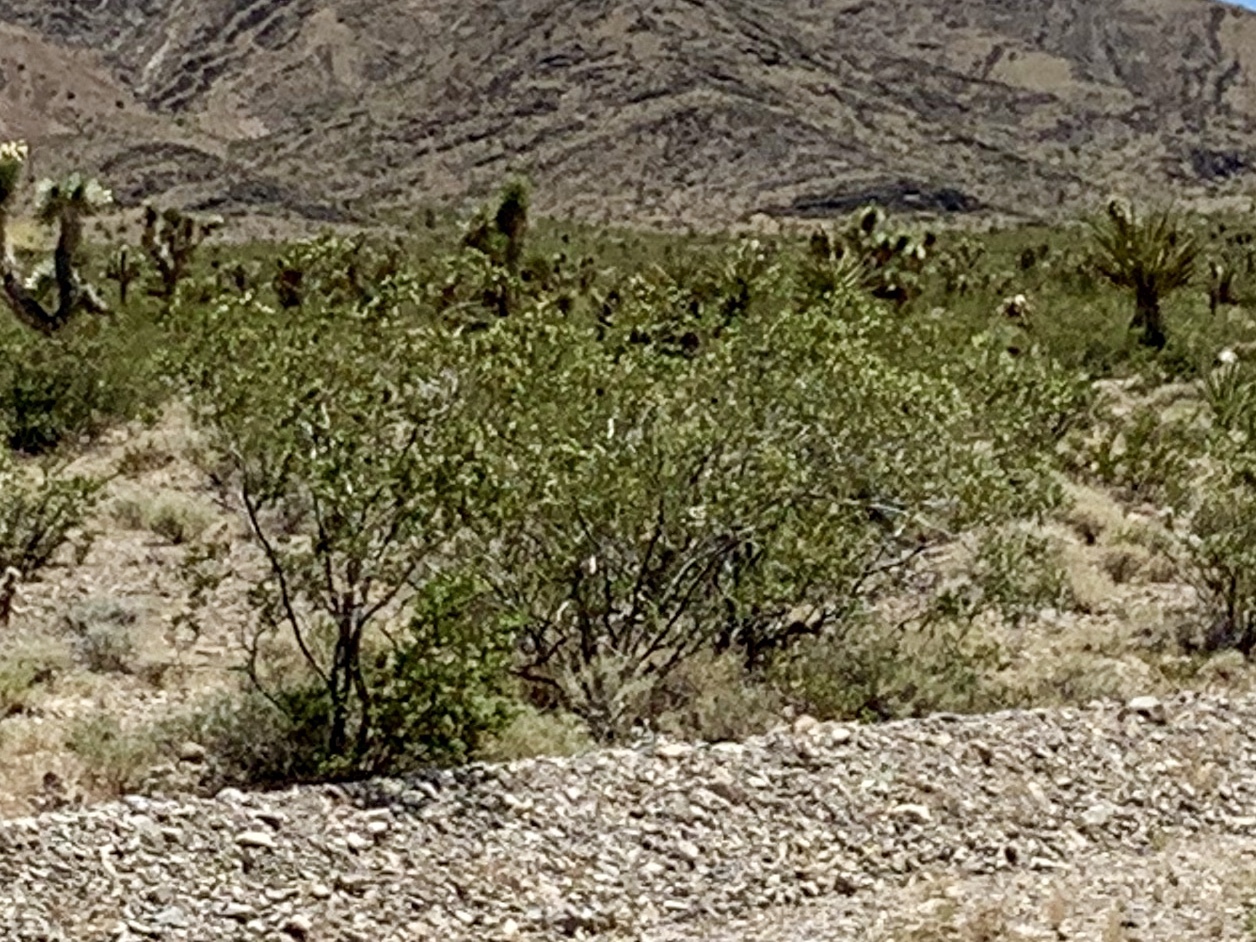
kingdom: Plantae
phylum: Tracheophyta
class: Magnoliopsida
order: Zygophyllales
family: Zygophyllaceae
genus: Larrea
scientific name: Larrea tridentata
